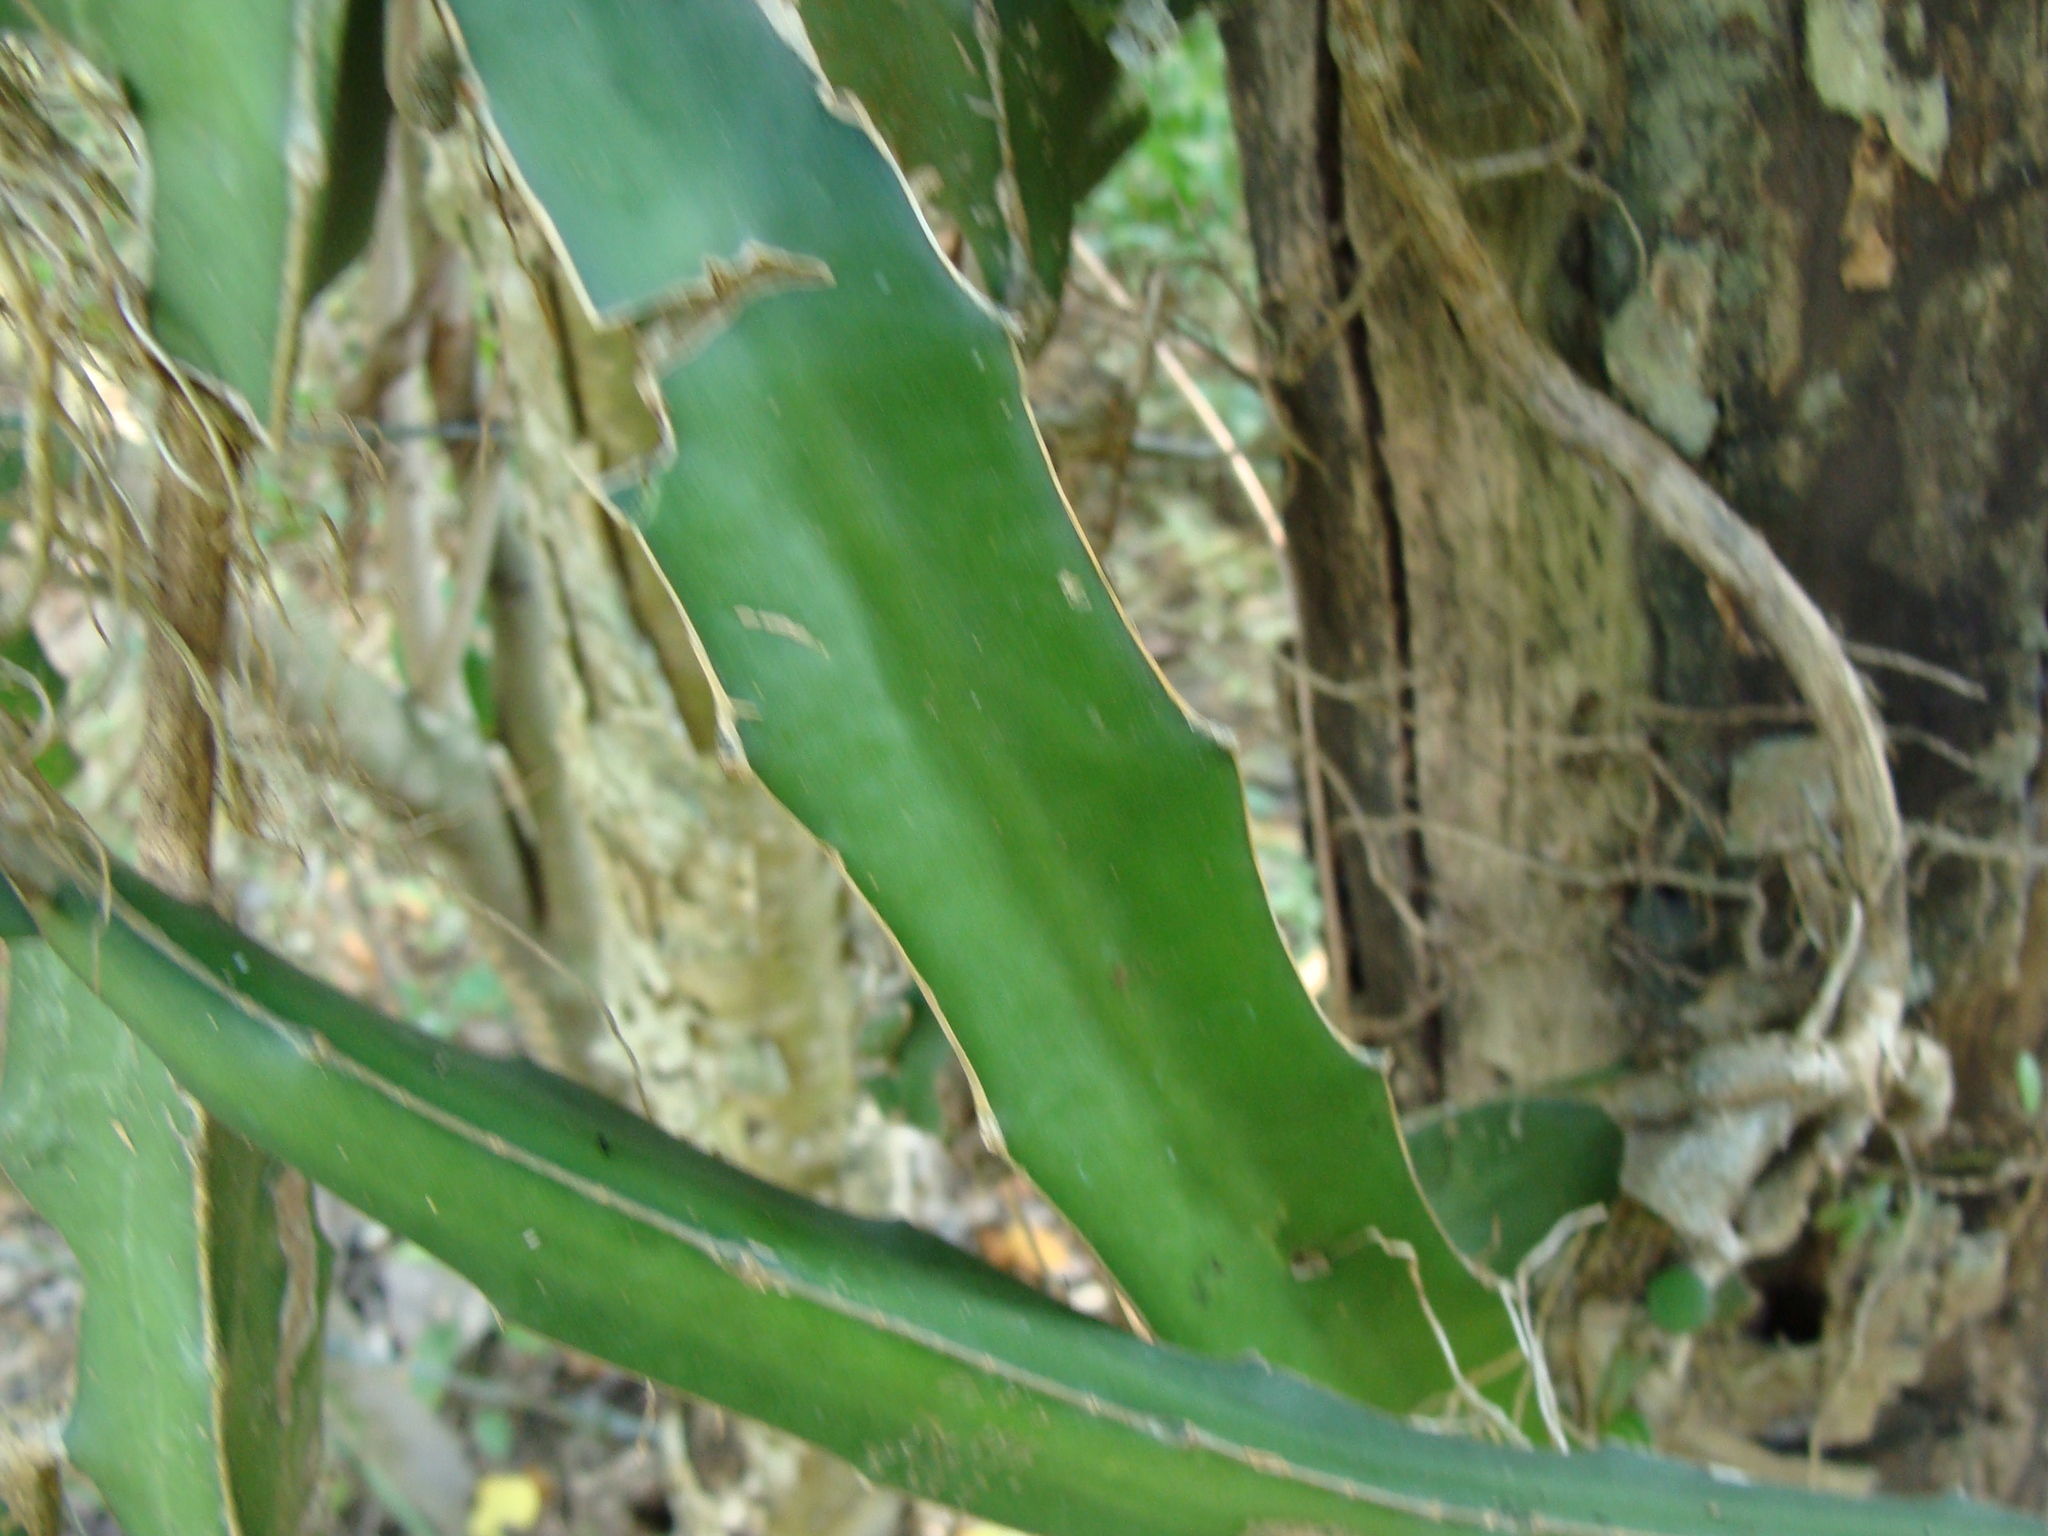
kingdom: Plantae
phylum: Tracheophyta
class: Magnoliopsida
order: Caryophyllales
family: Cactaceae
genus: Selenicereus
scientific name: Selenicereus triangularis
